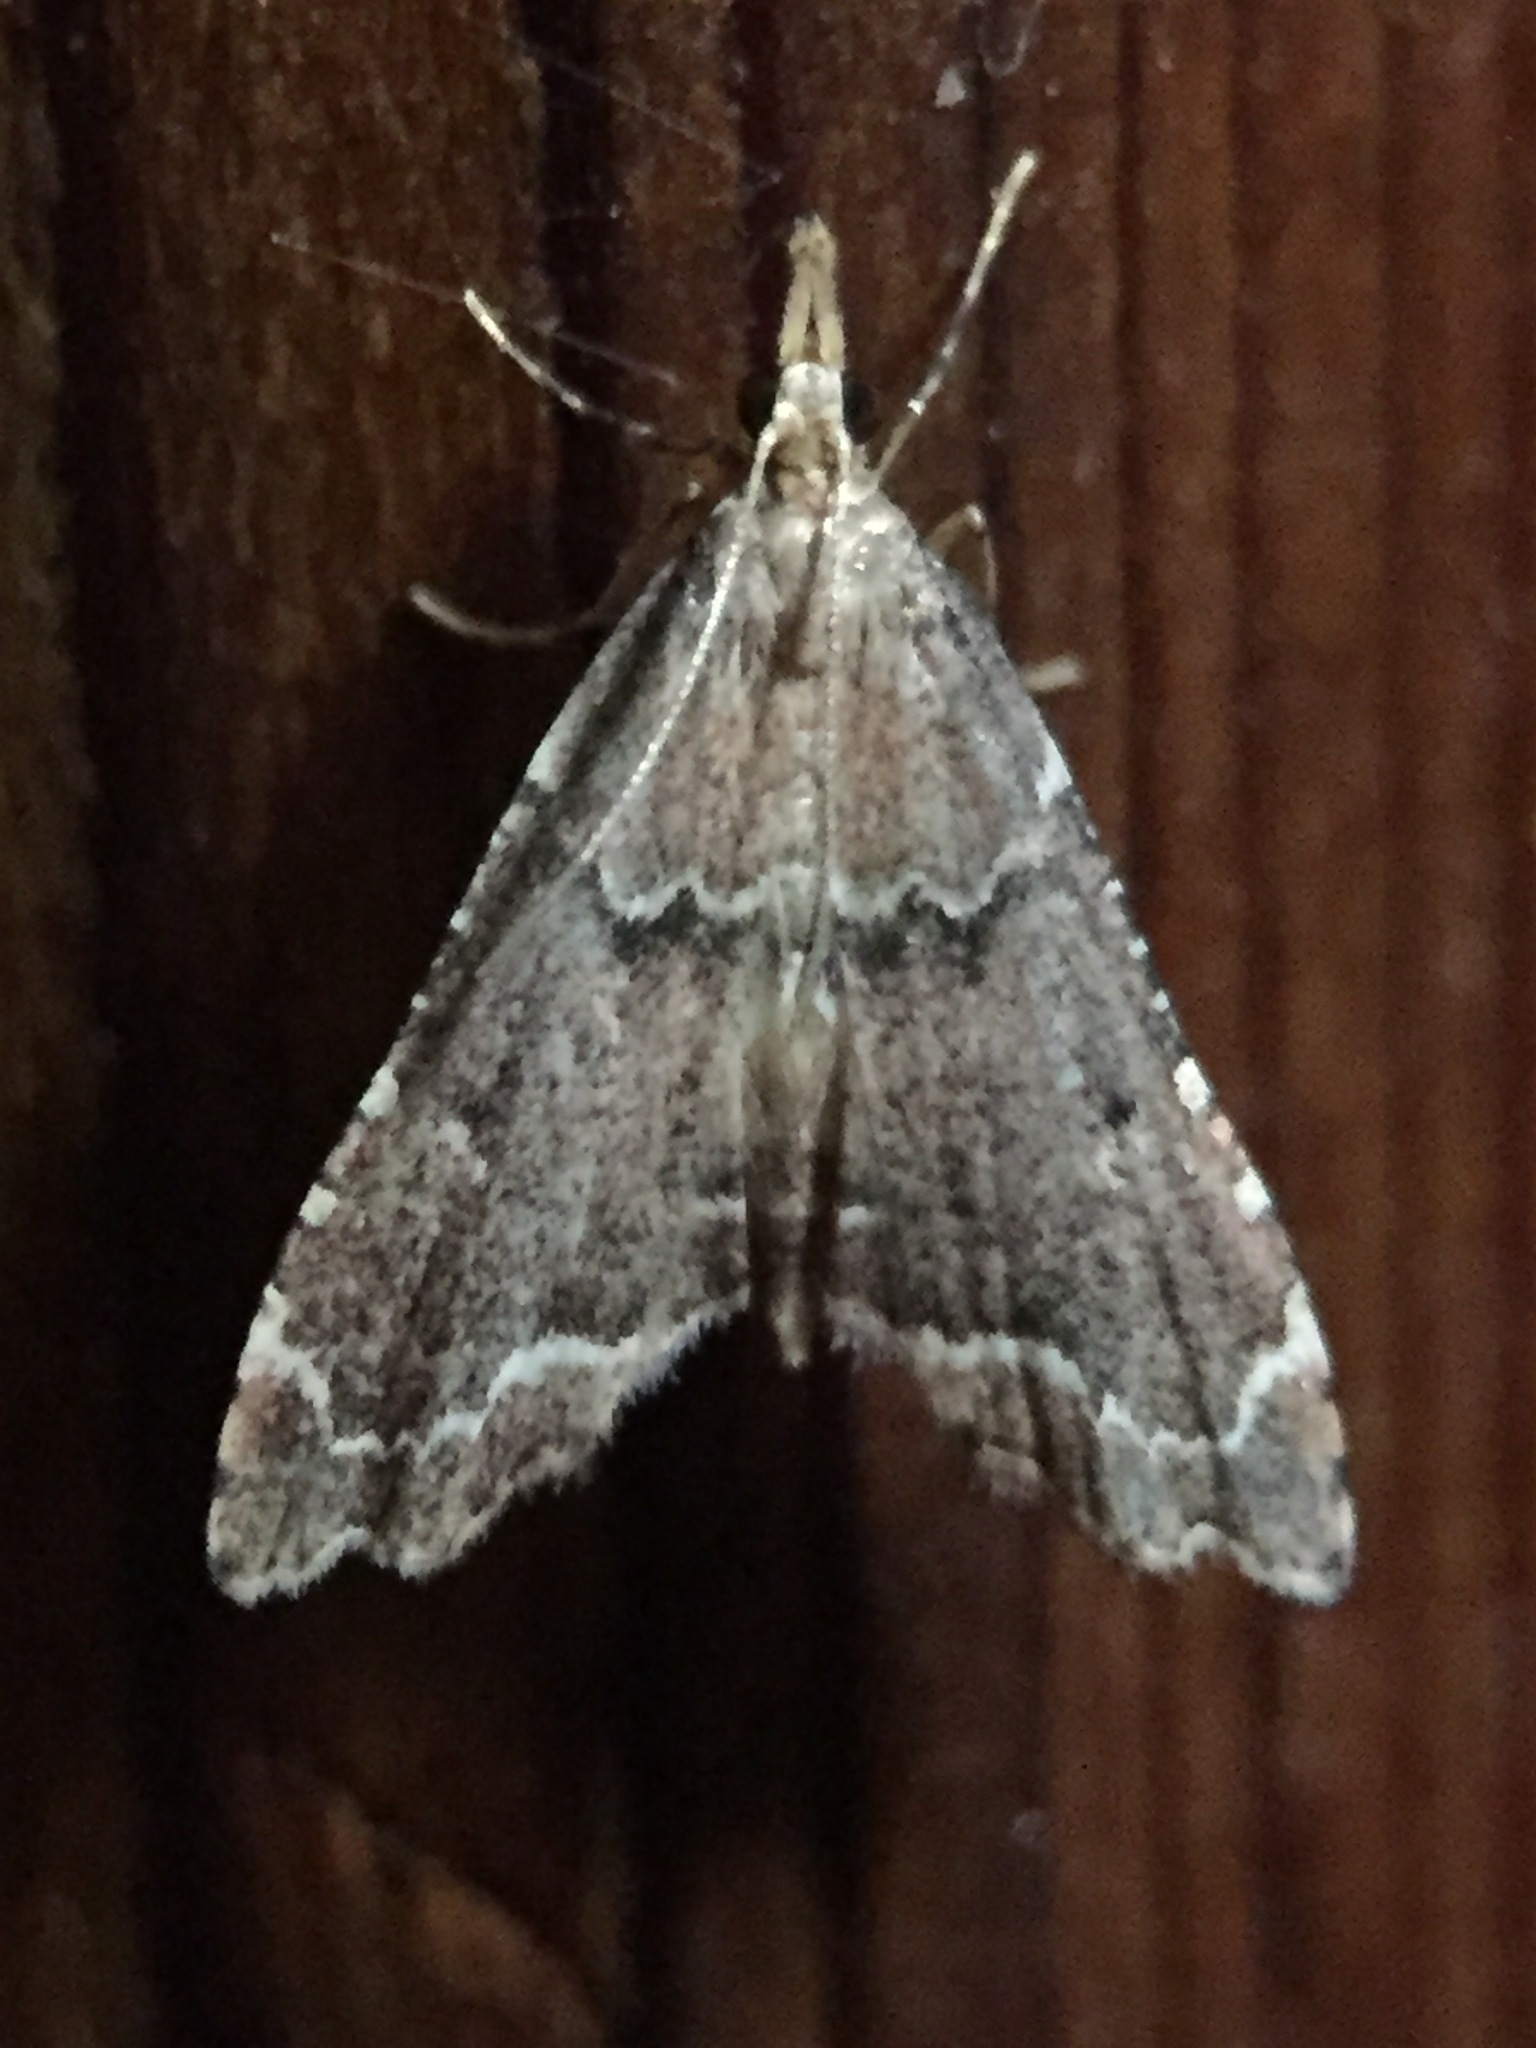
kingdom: Animalia
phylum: Arthropoda
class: Insecta
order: Lepidoptera
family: Crambidae
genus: Diplopseustis
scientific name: Diplopseustis perieresalis
